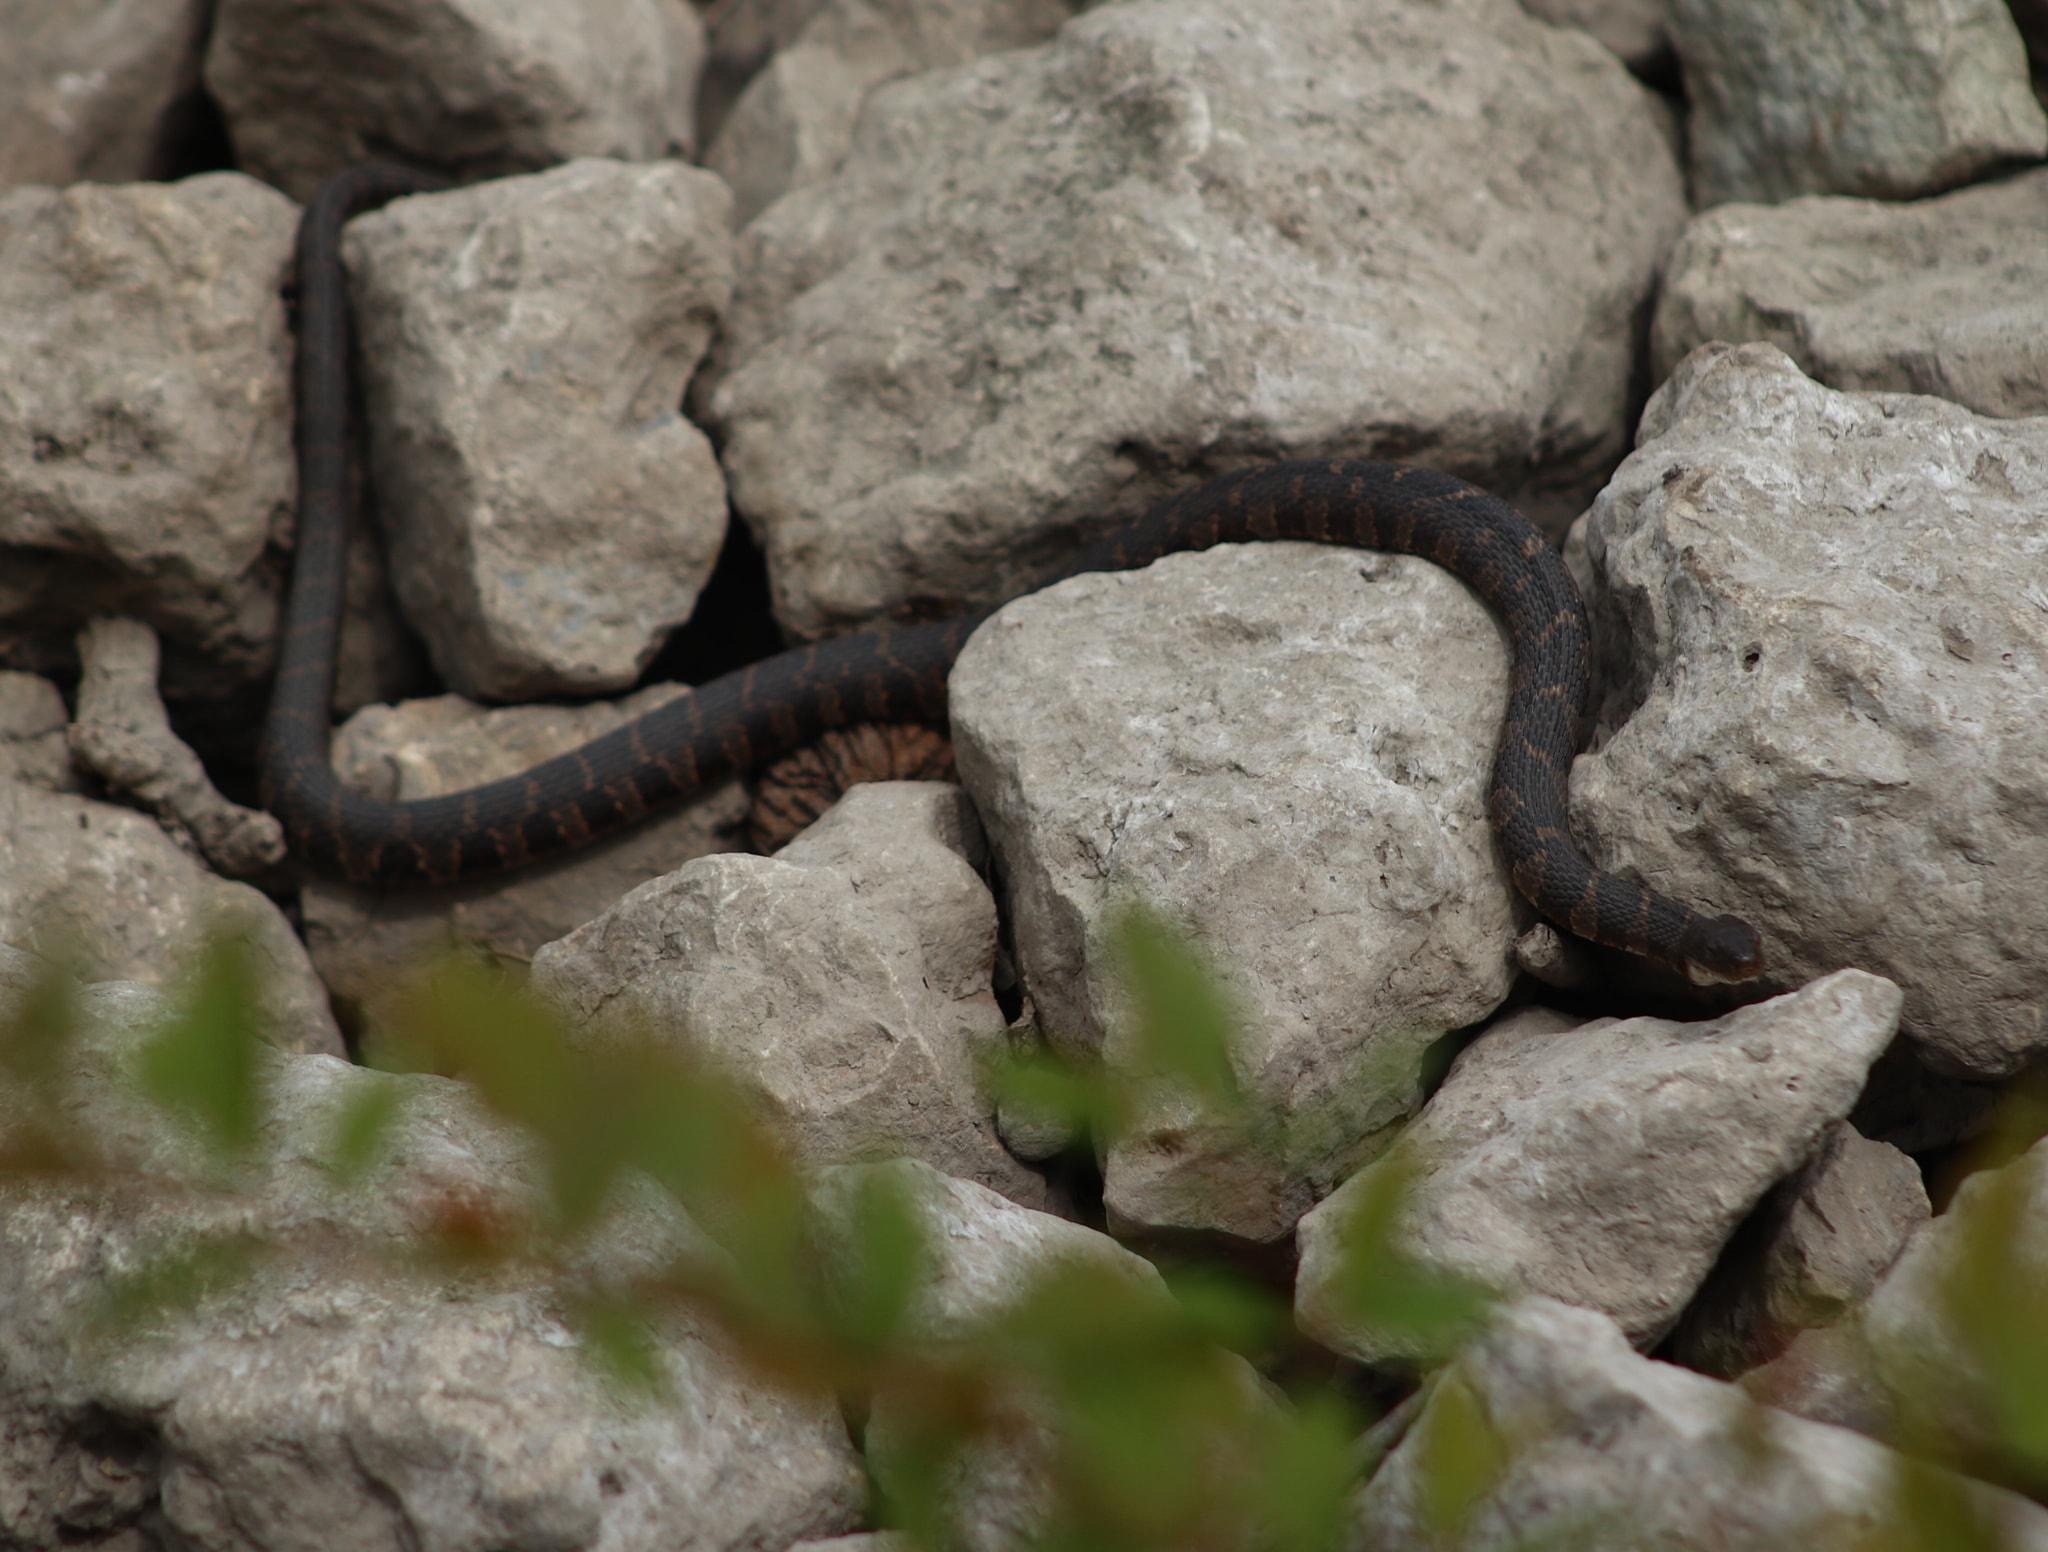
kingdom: Animalia
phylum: Chordata
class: Squamata
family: Colubridae
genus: Nerodia
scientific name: Nerodia sipedon
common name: Northern water snake
